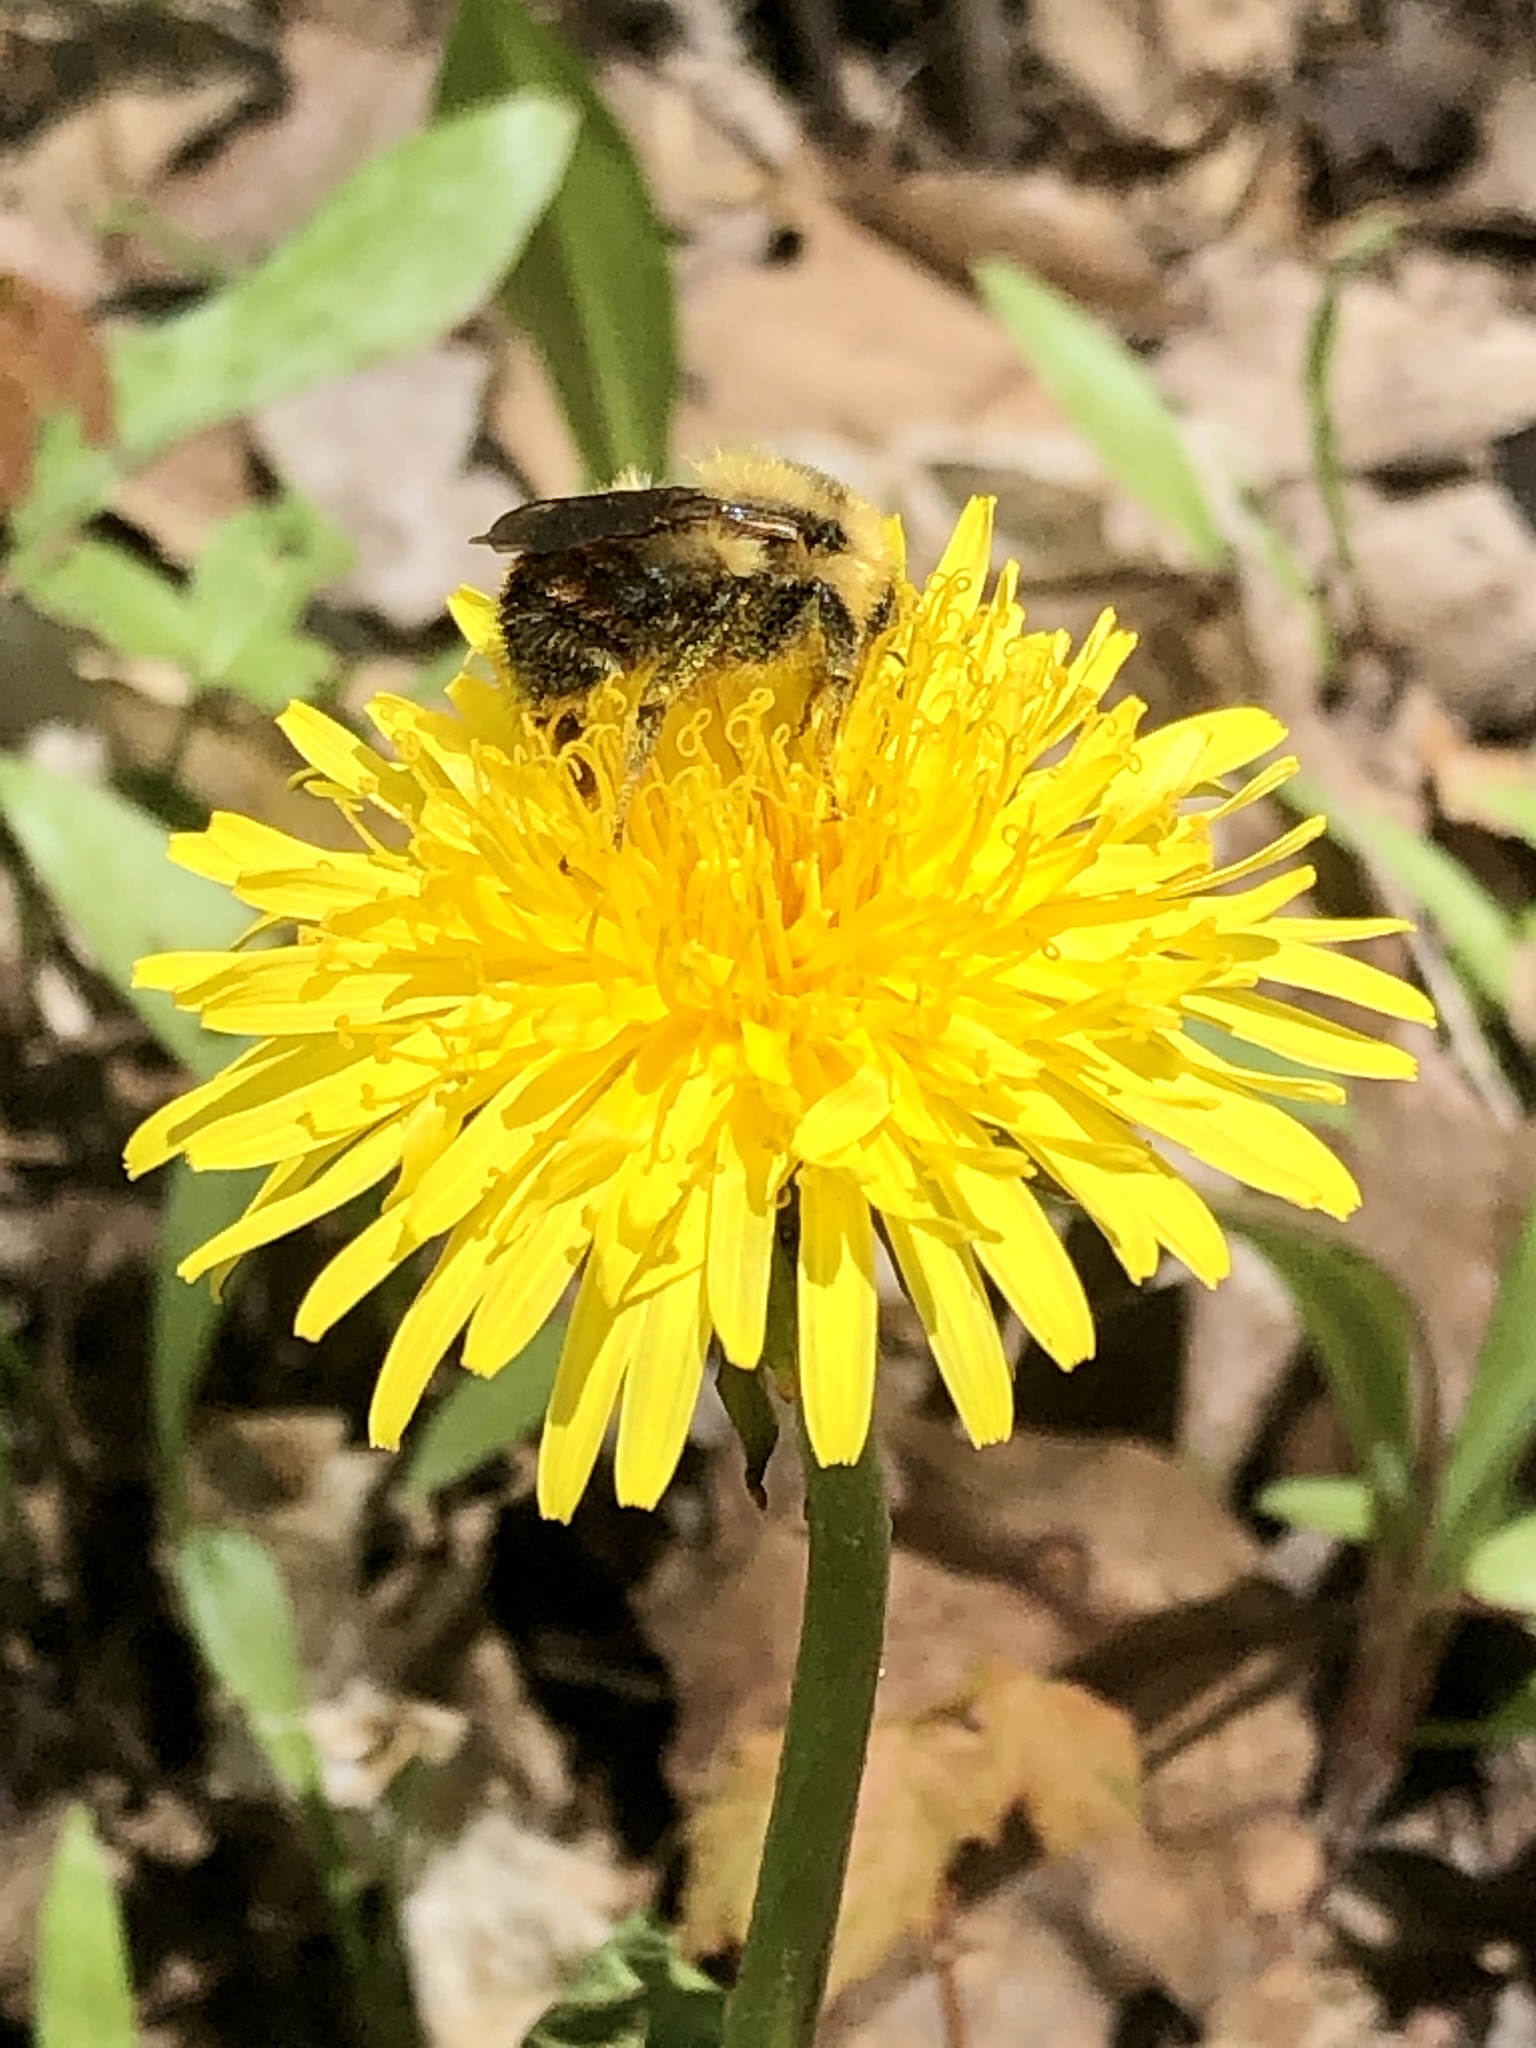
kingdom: Animalia
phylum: Arthropoda
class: Insecta
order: Hymenoptera
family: Apidae
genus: Bombus
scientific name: Bombus rufocinctus
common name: Red-belted bumble bee
